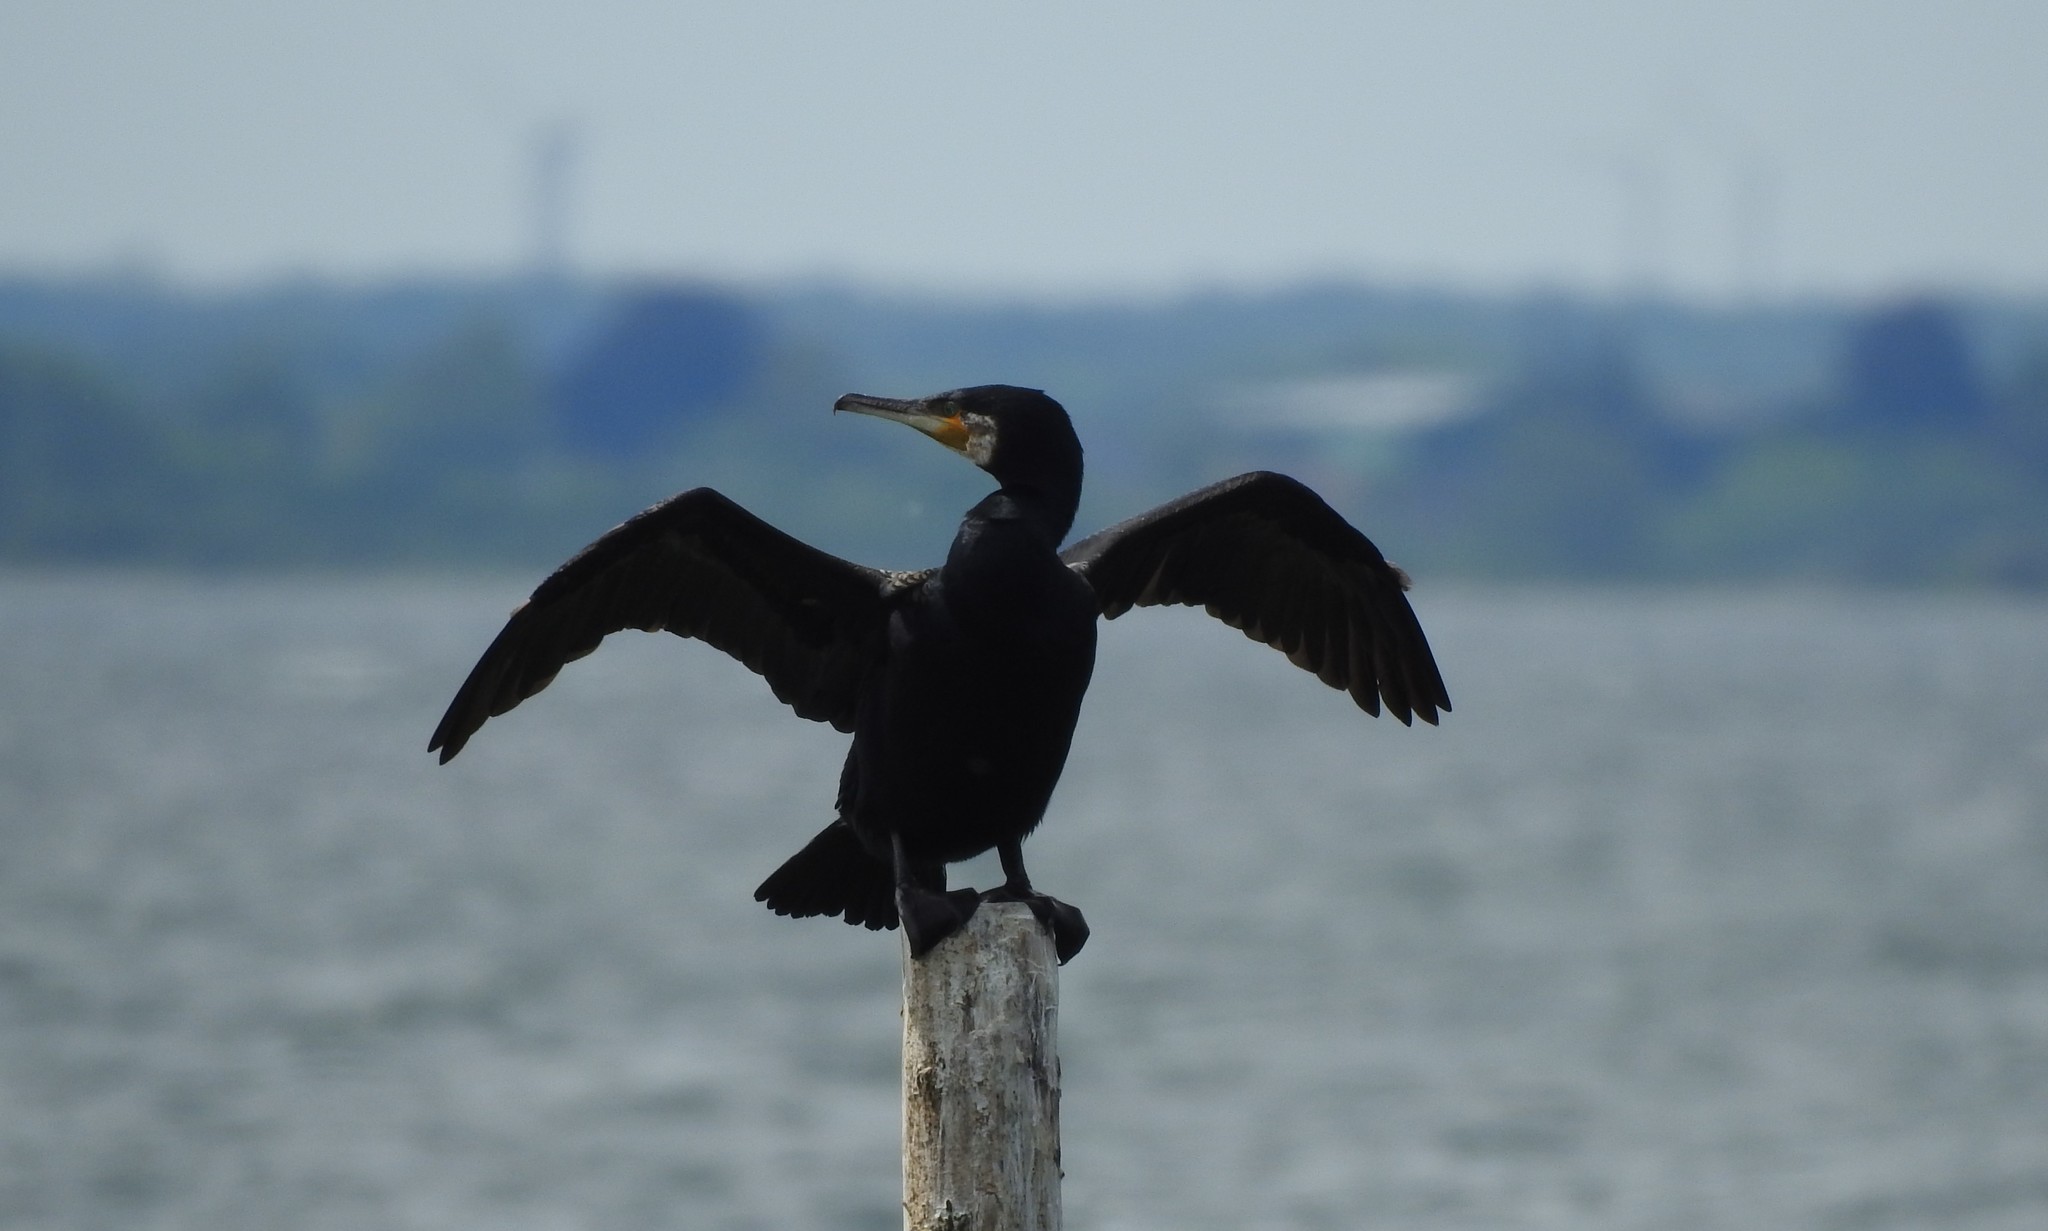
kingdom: Animalia
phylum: Chordata
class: Aves
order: Suliformes
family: Phalacrocoracidae
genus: Phalacrocorax
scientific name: Phalacrocorax carbo
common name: Great cormorant
